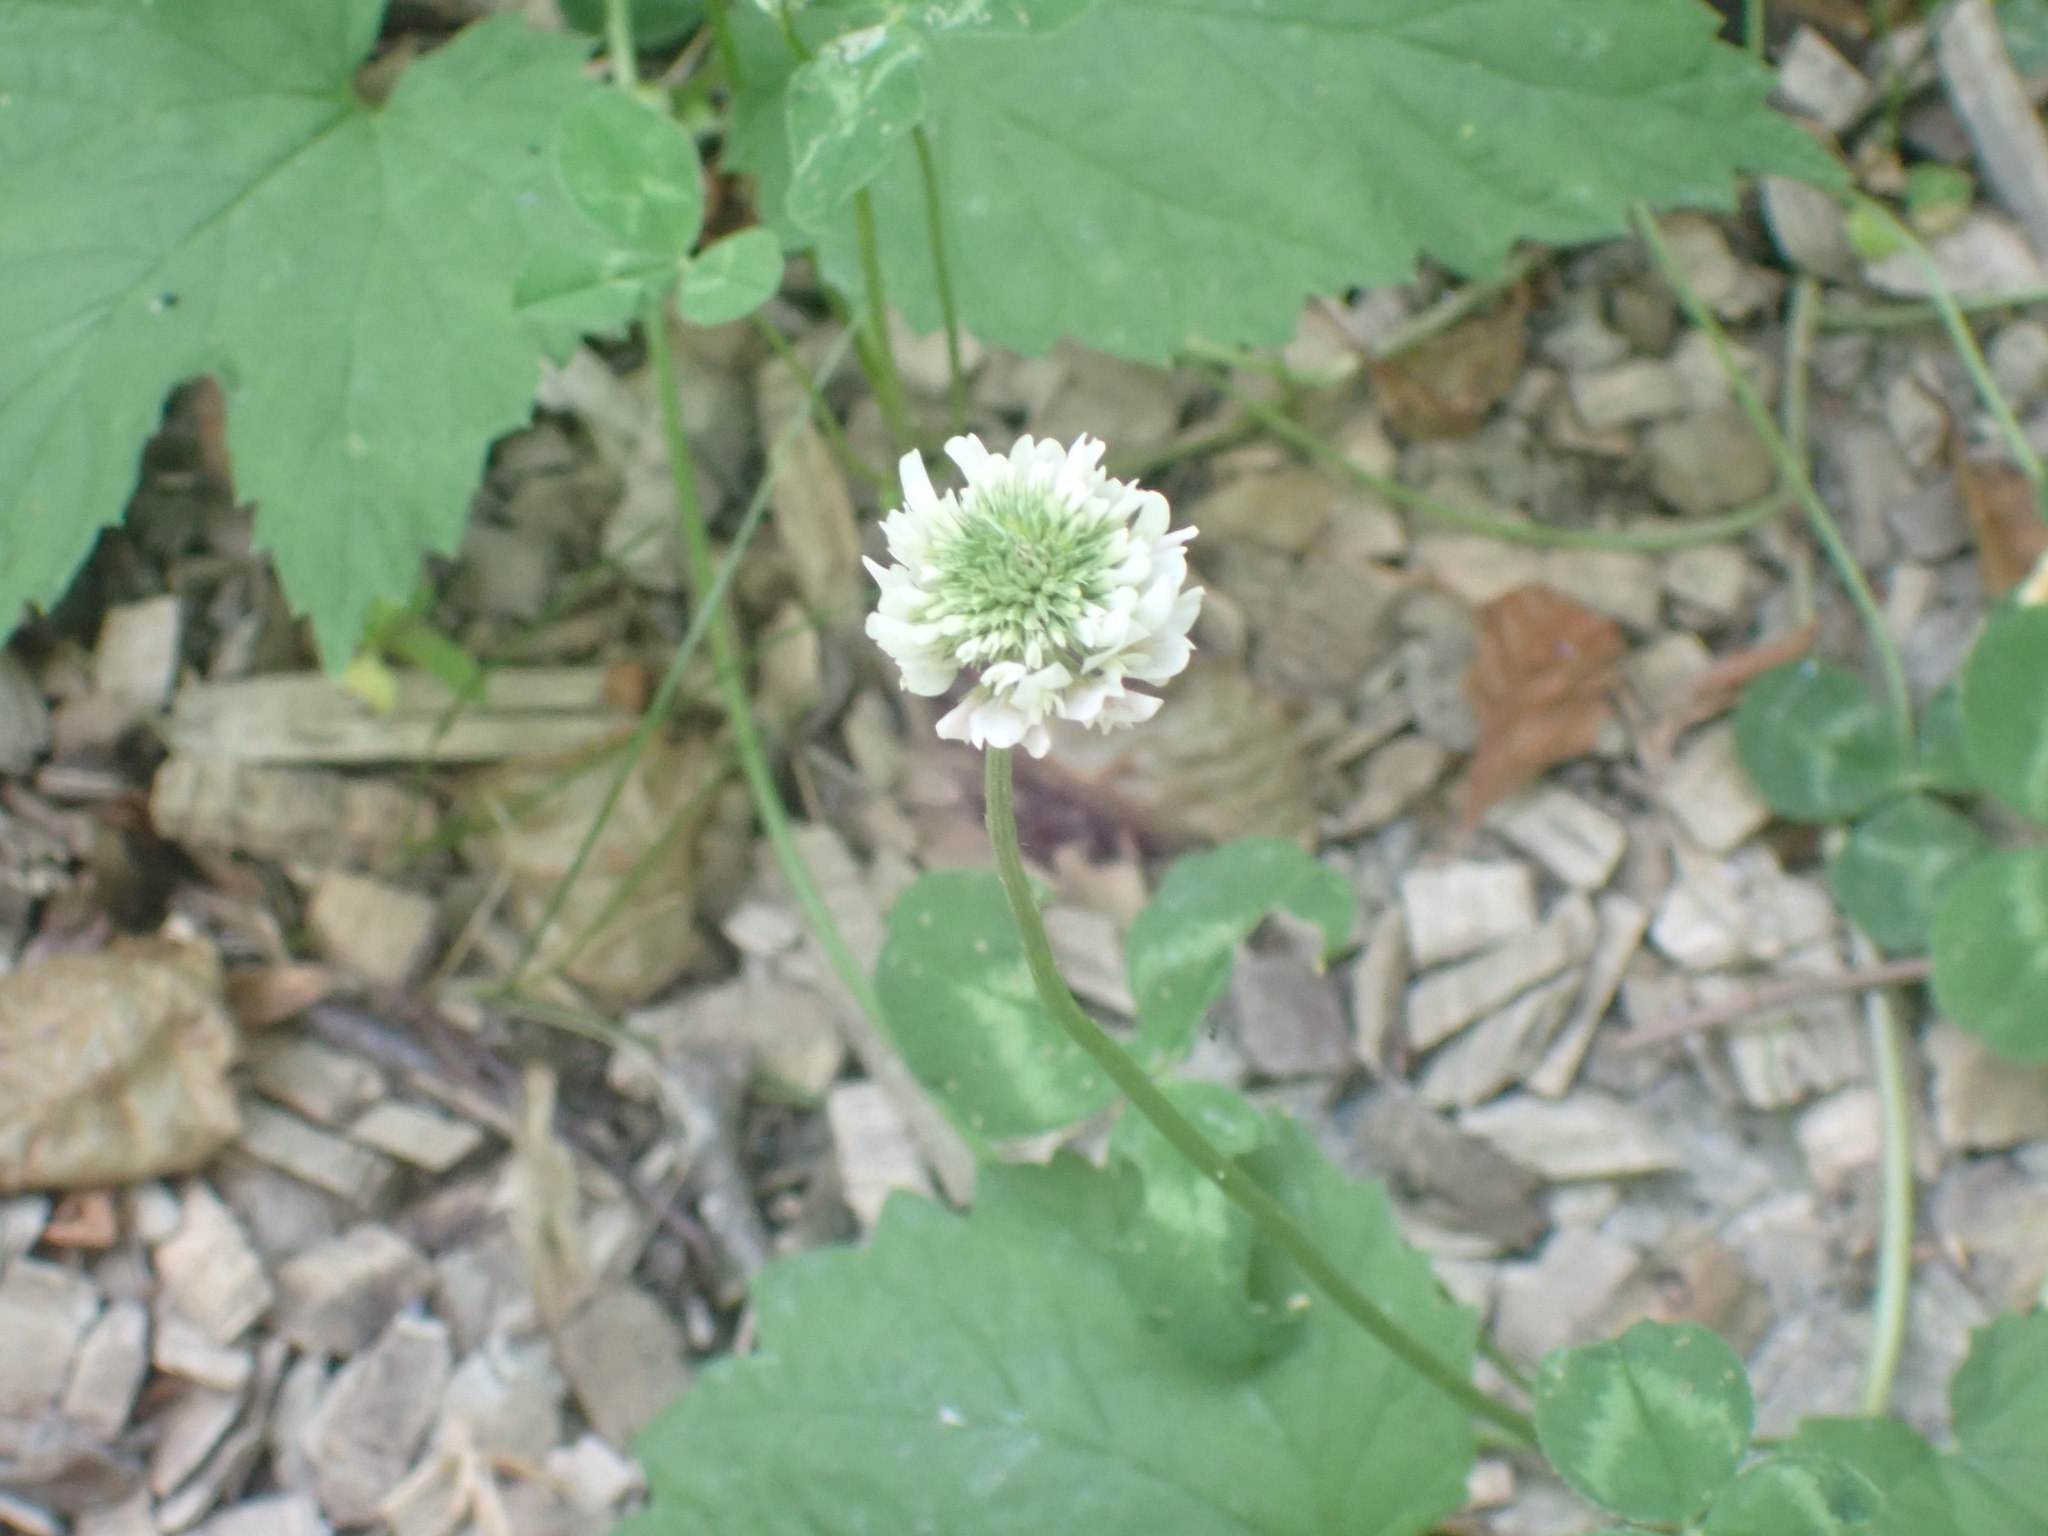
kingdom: Plantae
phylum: Tracheophyta
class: Magnoliopsida
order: Fabales
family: Fabaceae
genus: Trifolium
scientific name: Trifolium repens
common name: White clover
